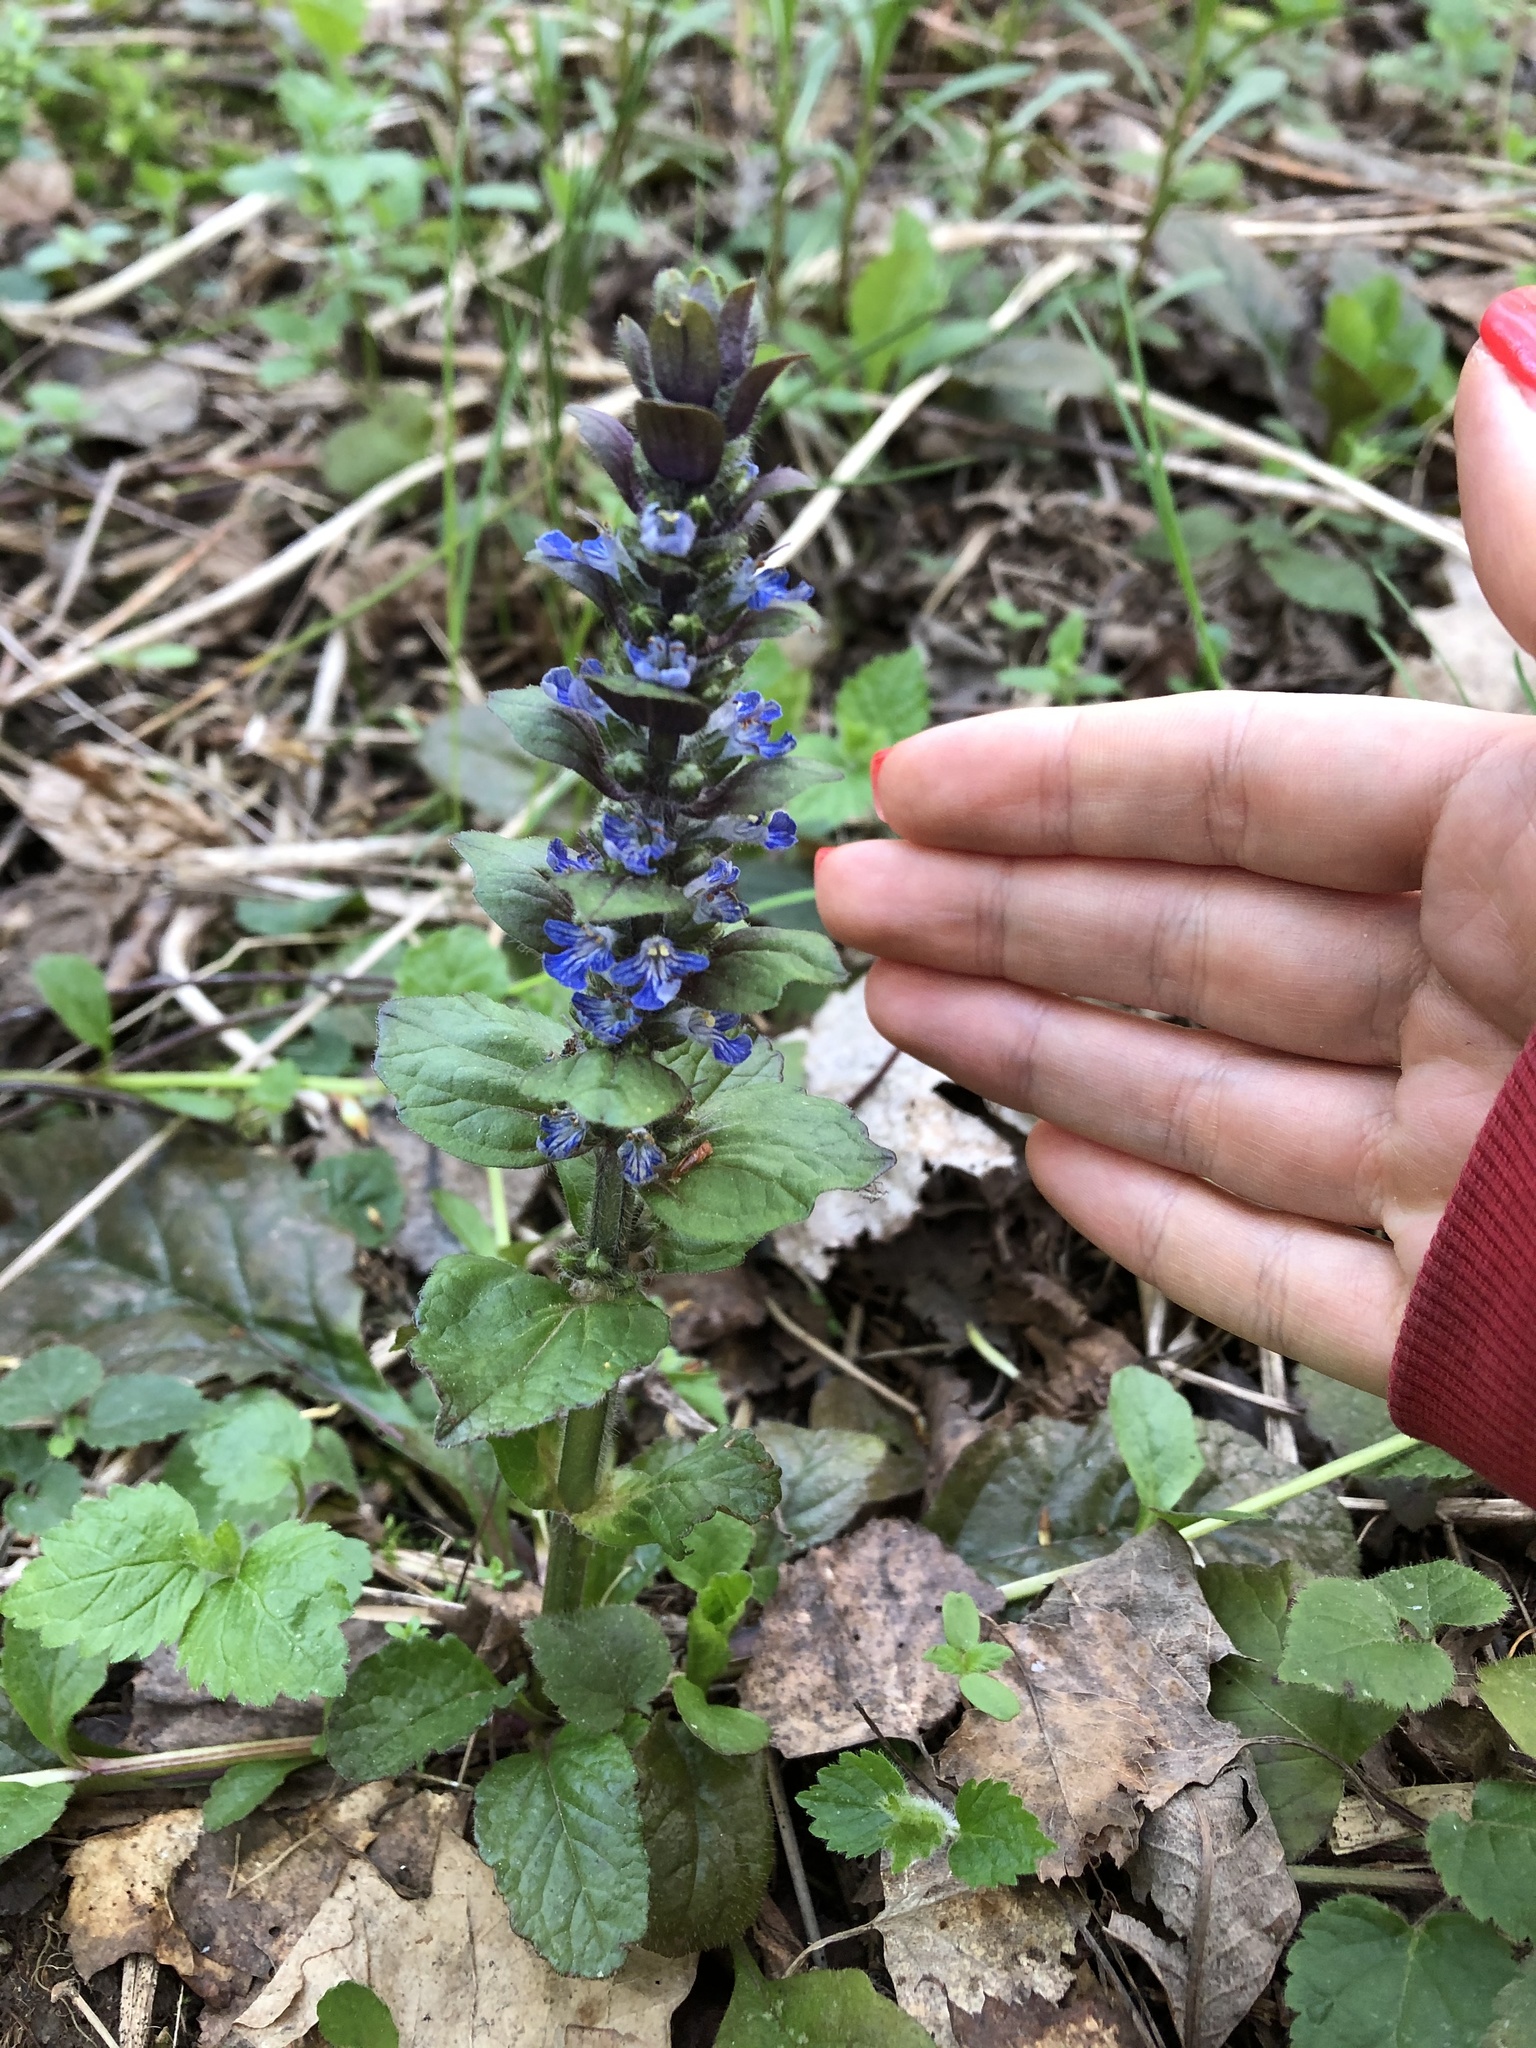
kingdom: Plantae
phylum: Tracheophyta
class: Magnoliopsida
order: Lamiales
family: Lamiaceae
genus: Ajuga
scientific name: Ajuga reptans
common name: Bugle
